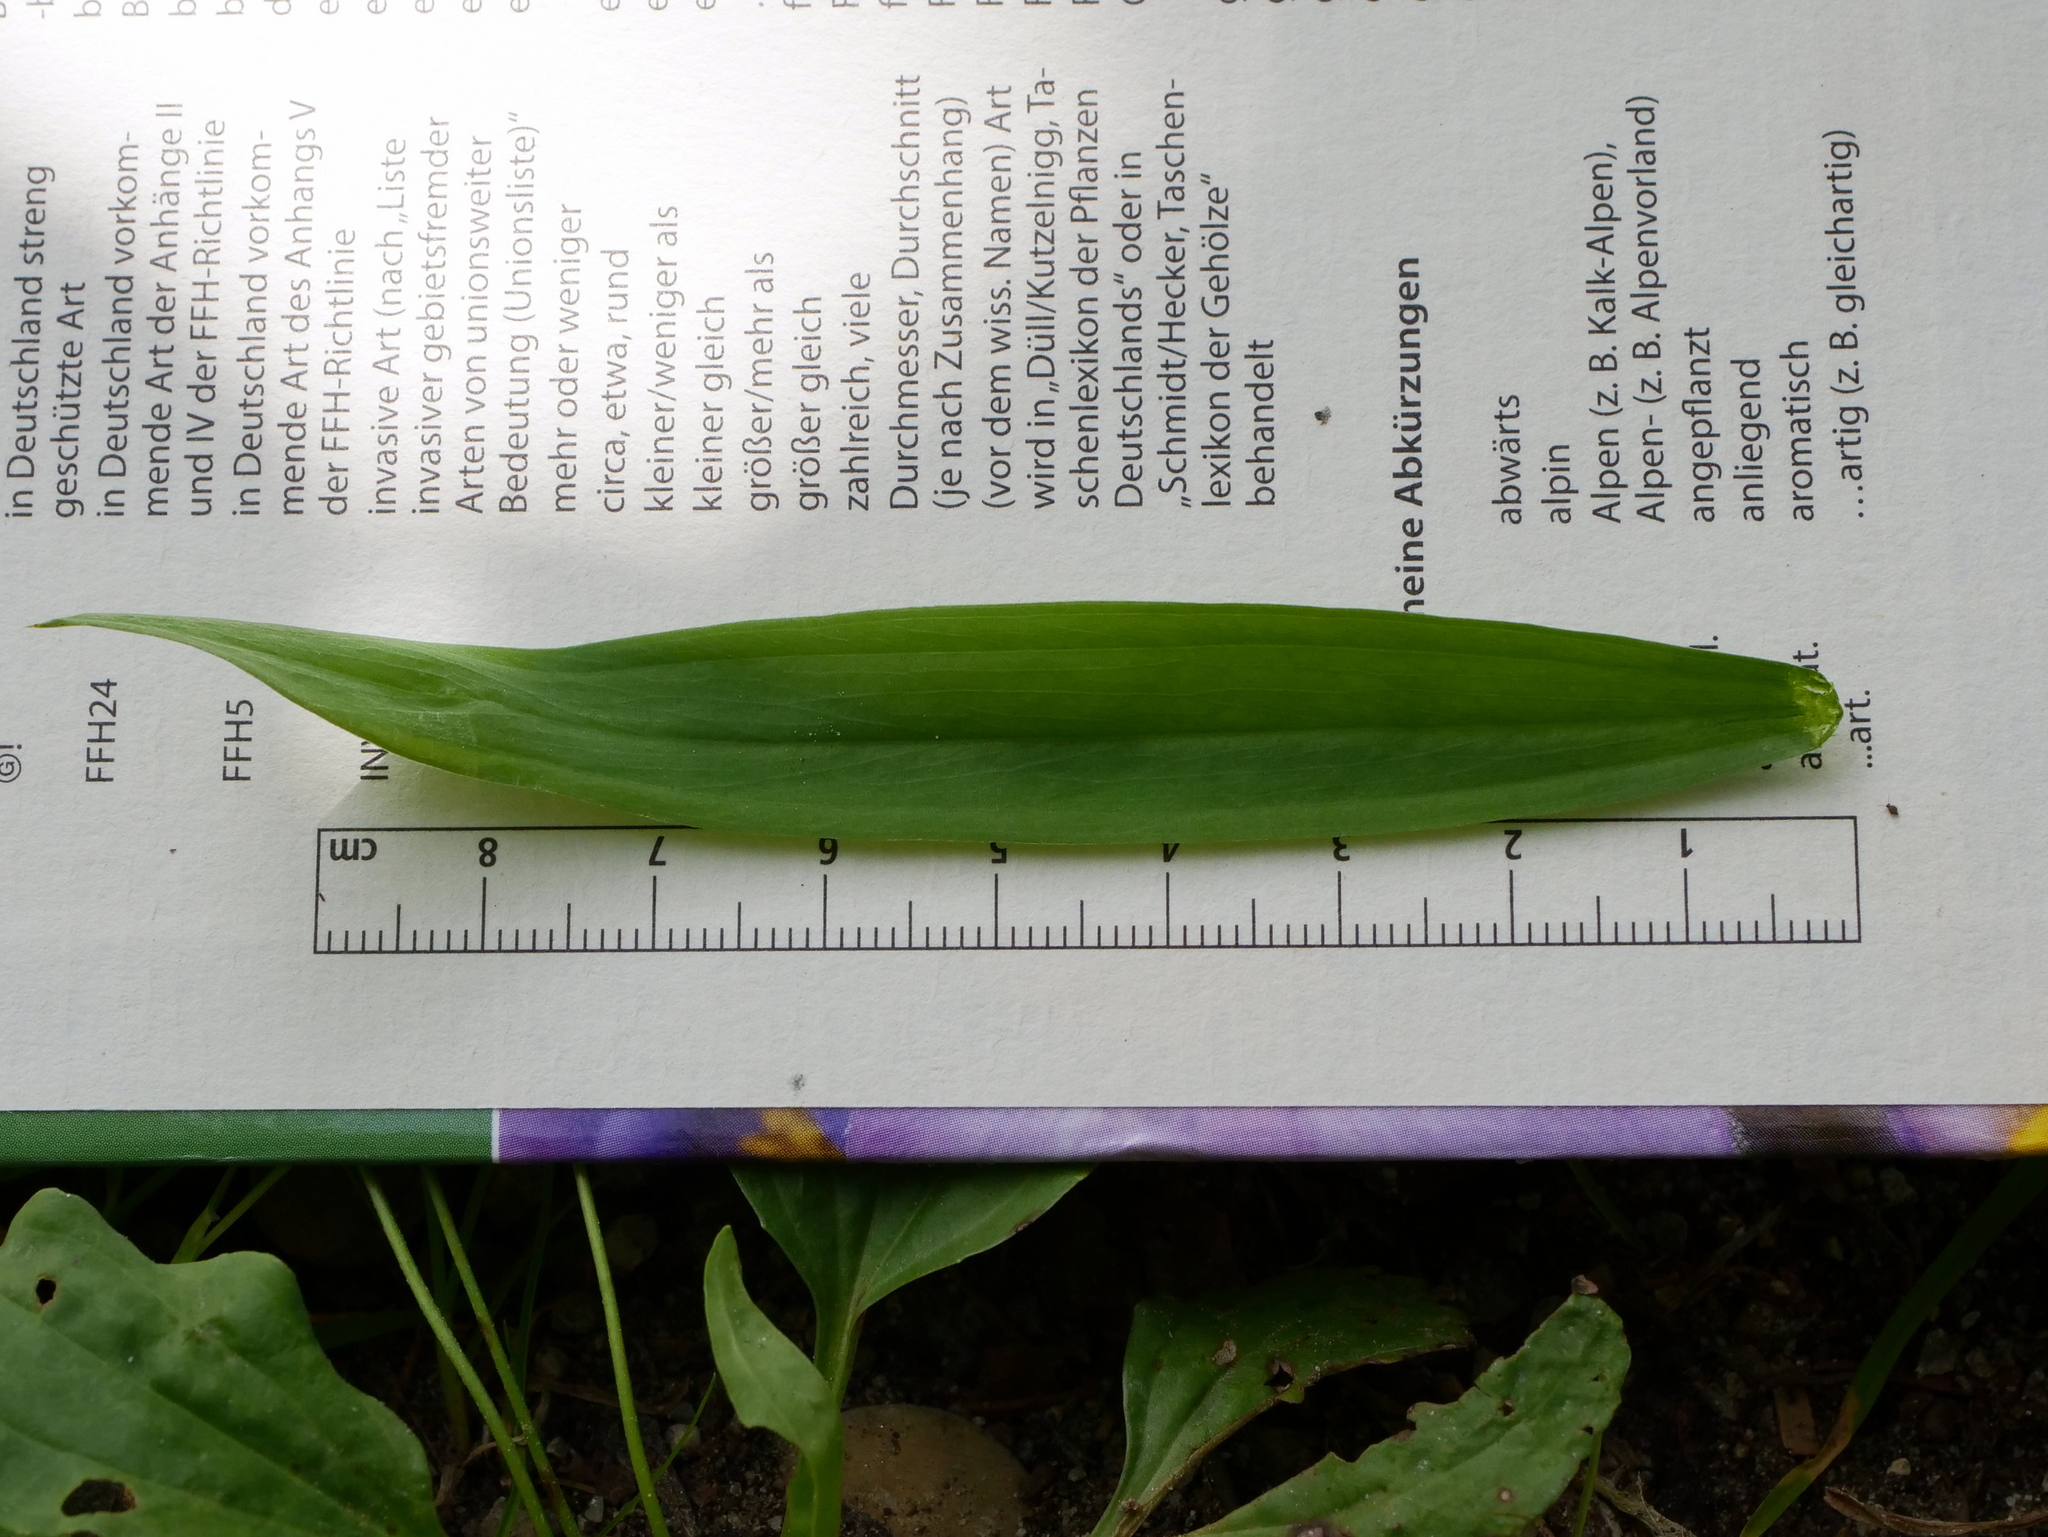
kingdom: Plantae
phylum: Tracheophyta
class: Magnoliopsida
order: Fabales
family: Fabaceae
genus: Lathyrus
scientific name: Lathyrus sylvestris
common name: Flat pea
